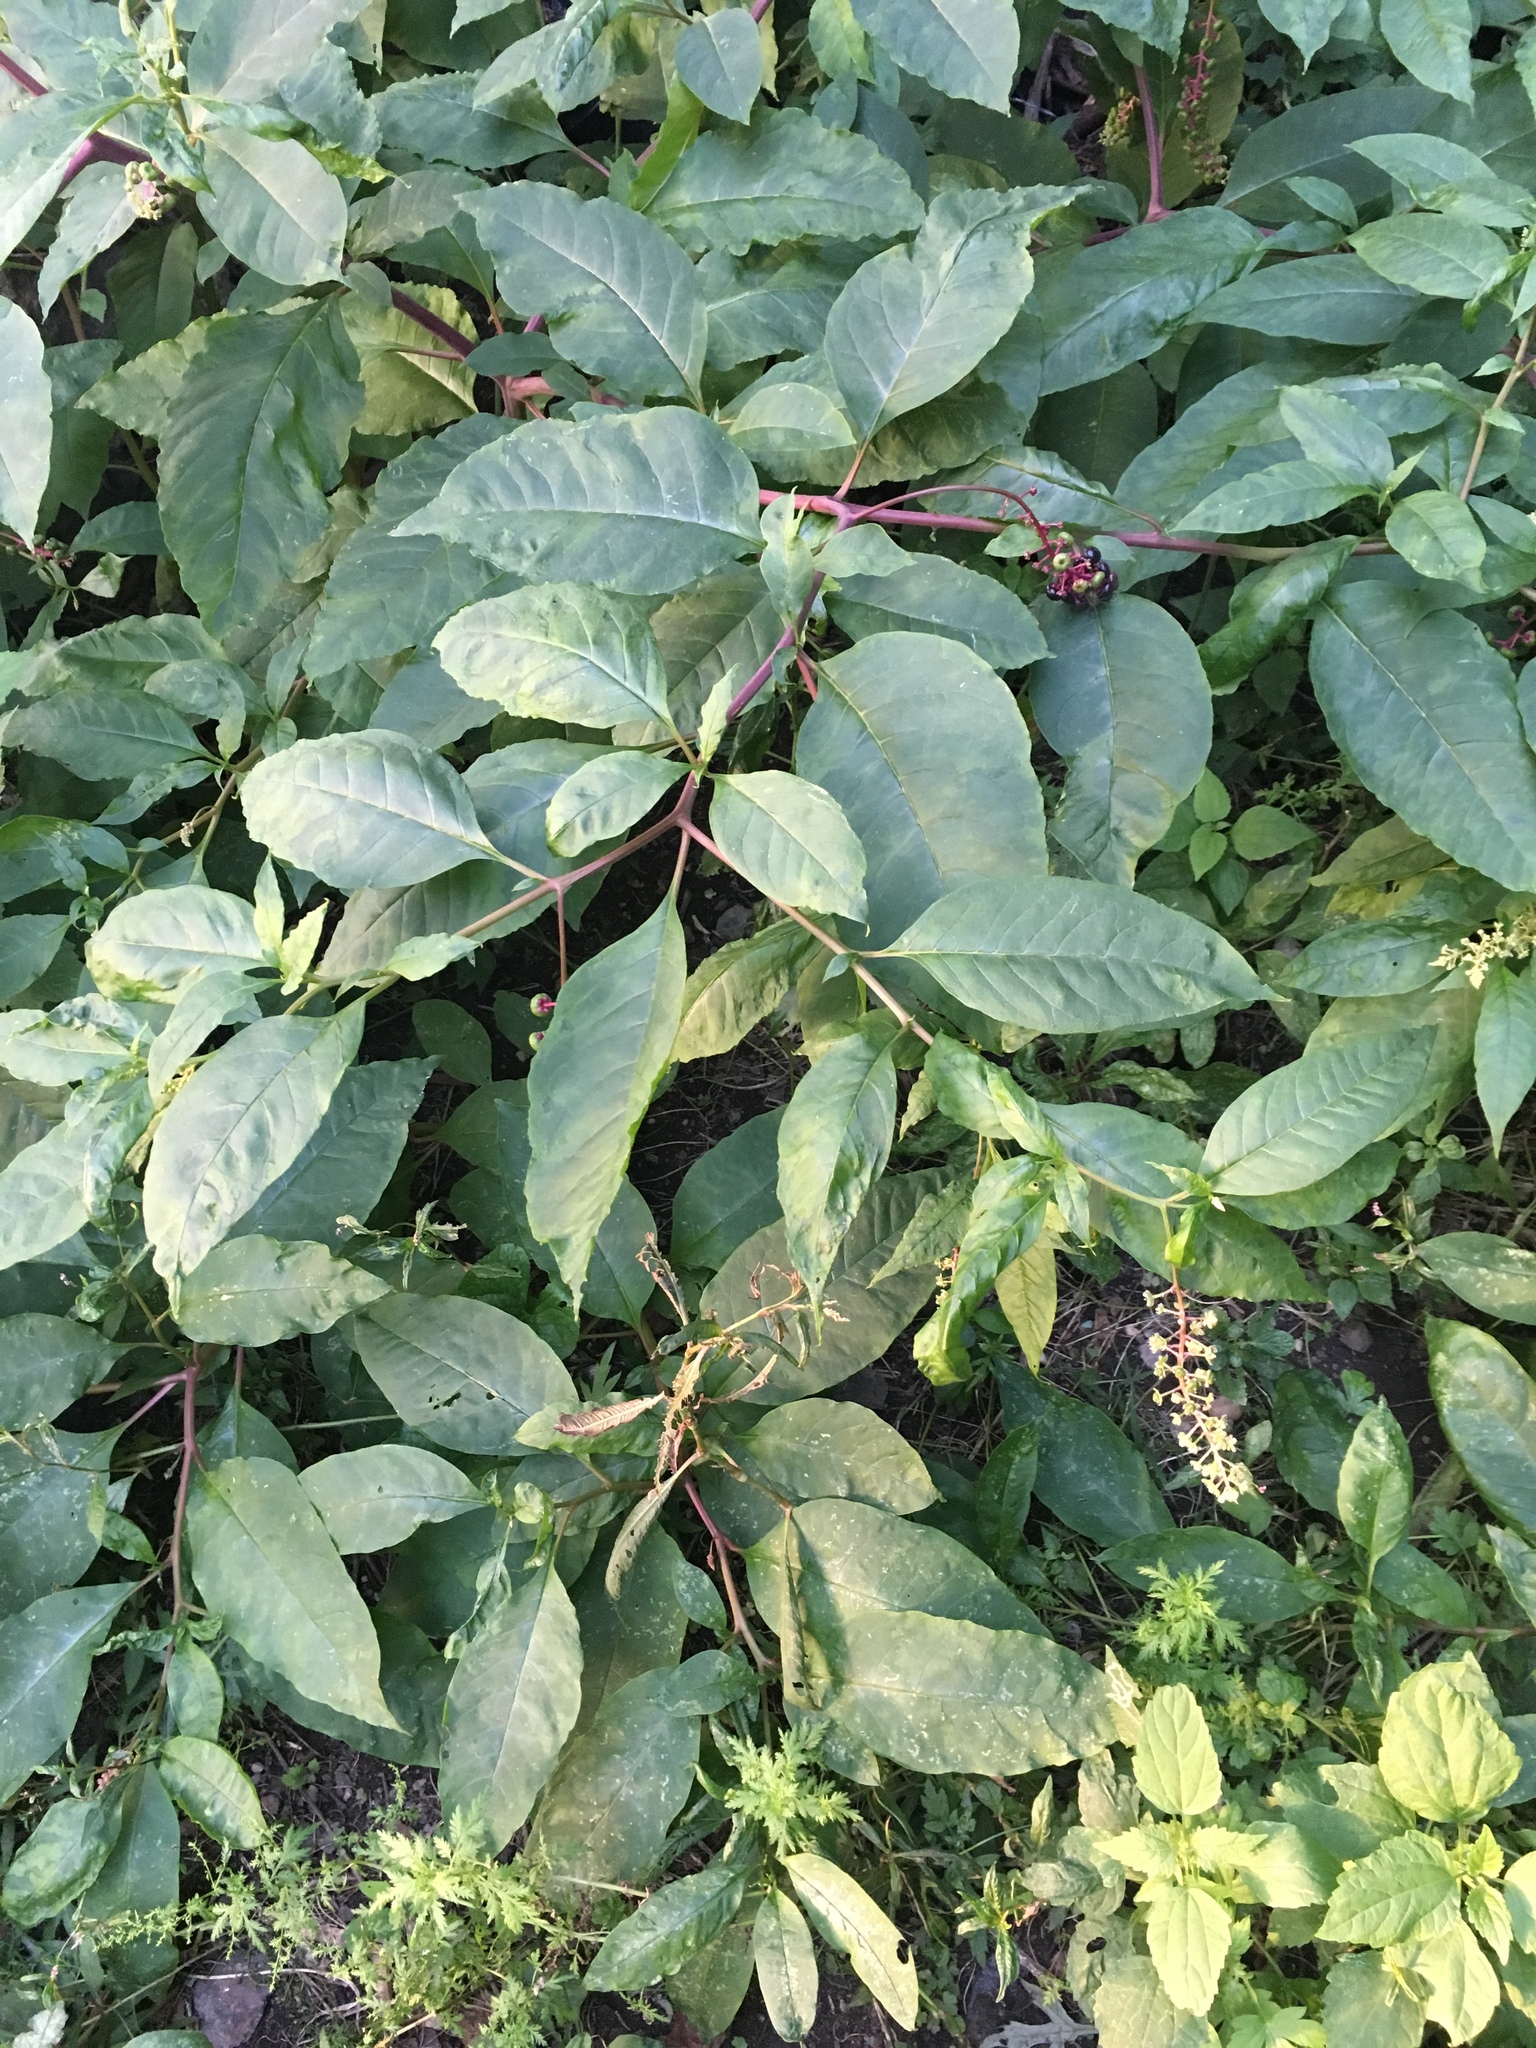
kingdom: Plantae
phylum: Tracheophyta
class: Magnoliopsida
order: Caryophyllales
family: Phytolaccaceae
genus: Phytolacca
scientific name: Phytolacca americana
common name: American pokeweed
